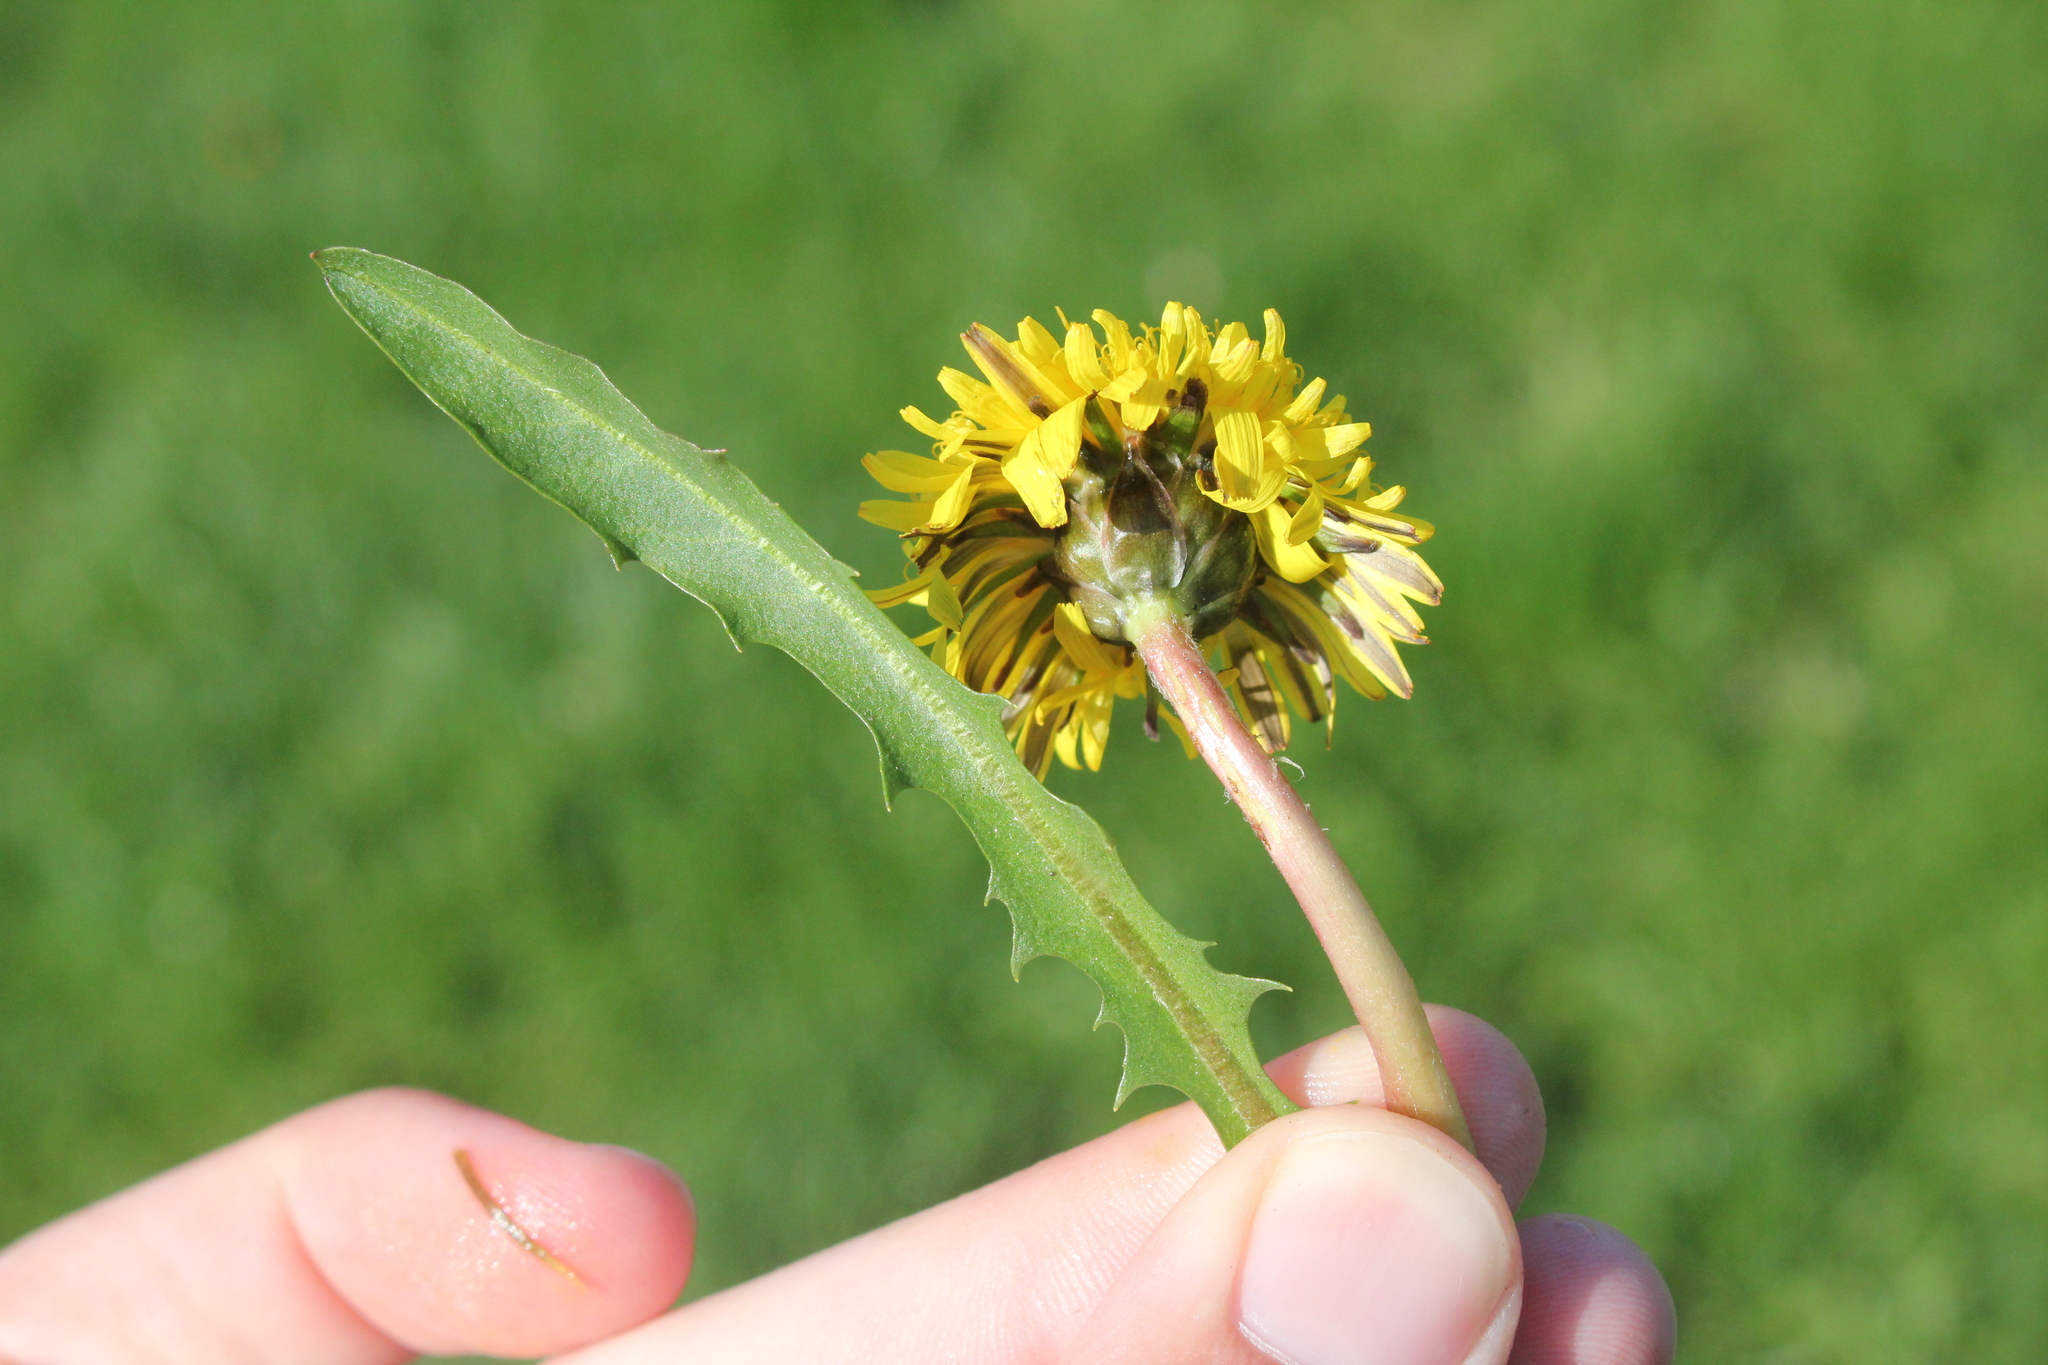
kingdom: Plantae
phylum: Tracheophyta
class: Magnoliopsida
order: Asterales
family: Asteraceae
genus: Taraxacum
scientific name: Taraxacum palustre
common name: Marsh dandelion
